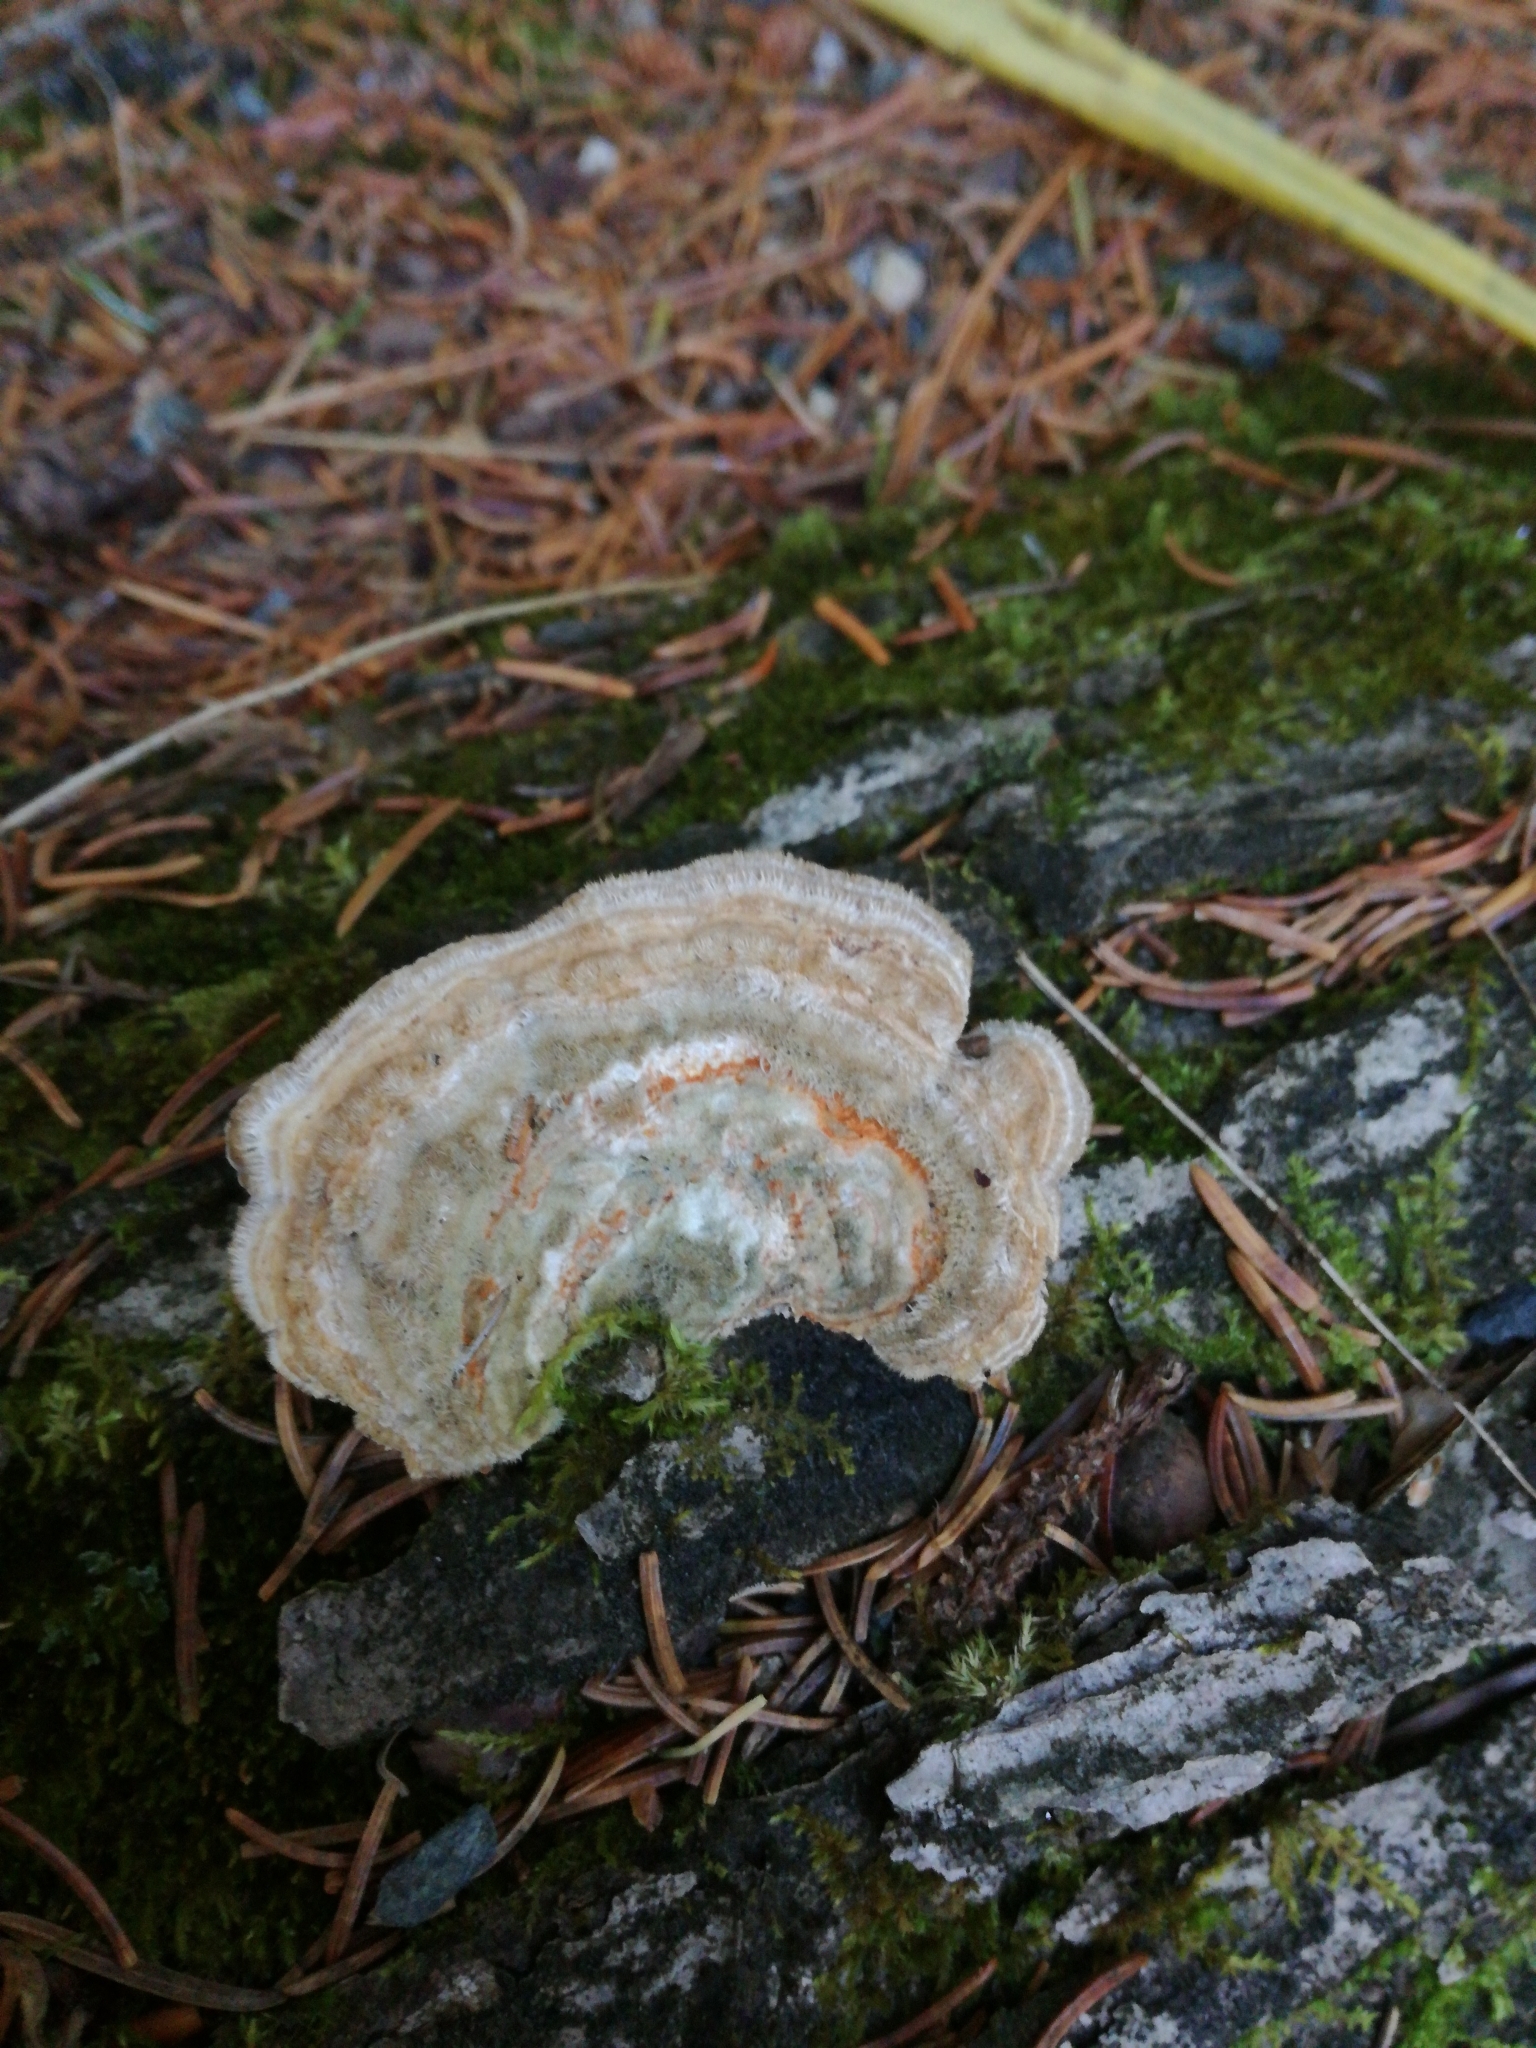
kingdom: Fungi
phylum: Basidiomycota
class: Agaricomycetes
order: Polyporales
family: Polyporaceae
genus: Lenzites
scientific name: Lenzites betulinus
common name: Birch mazegill
